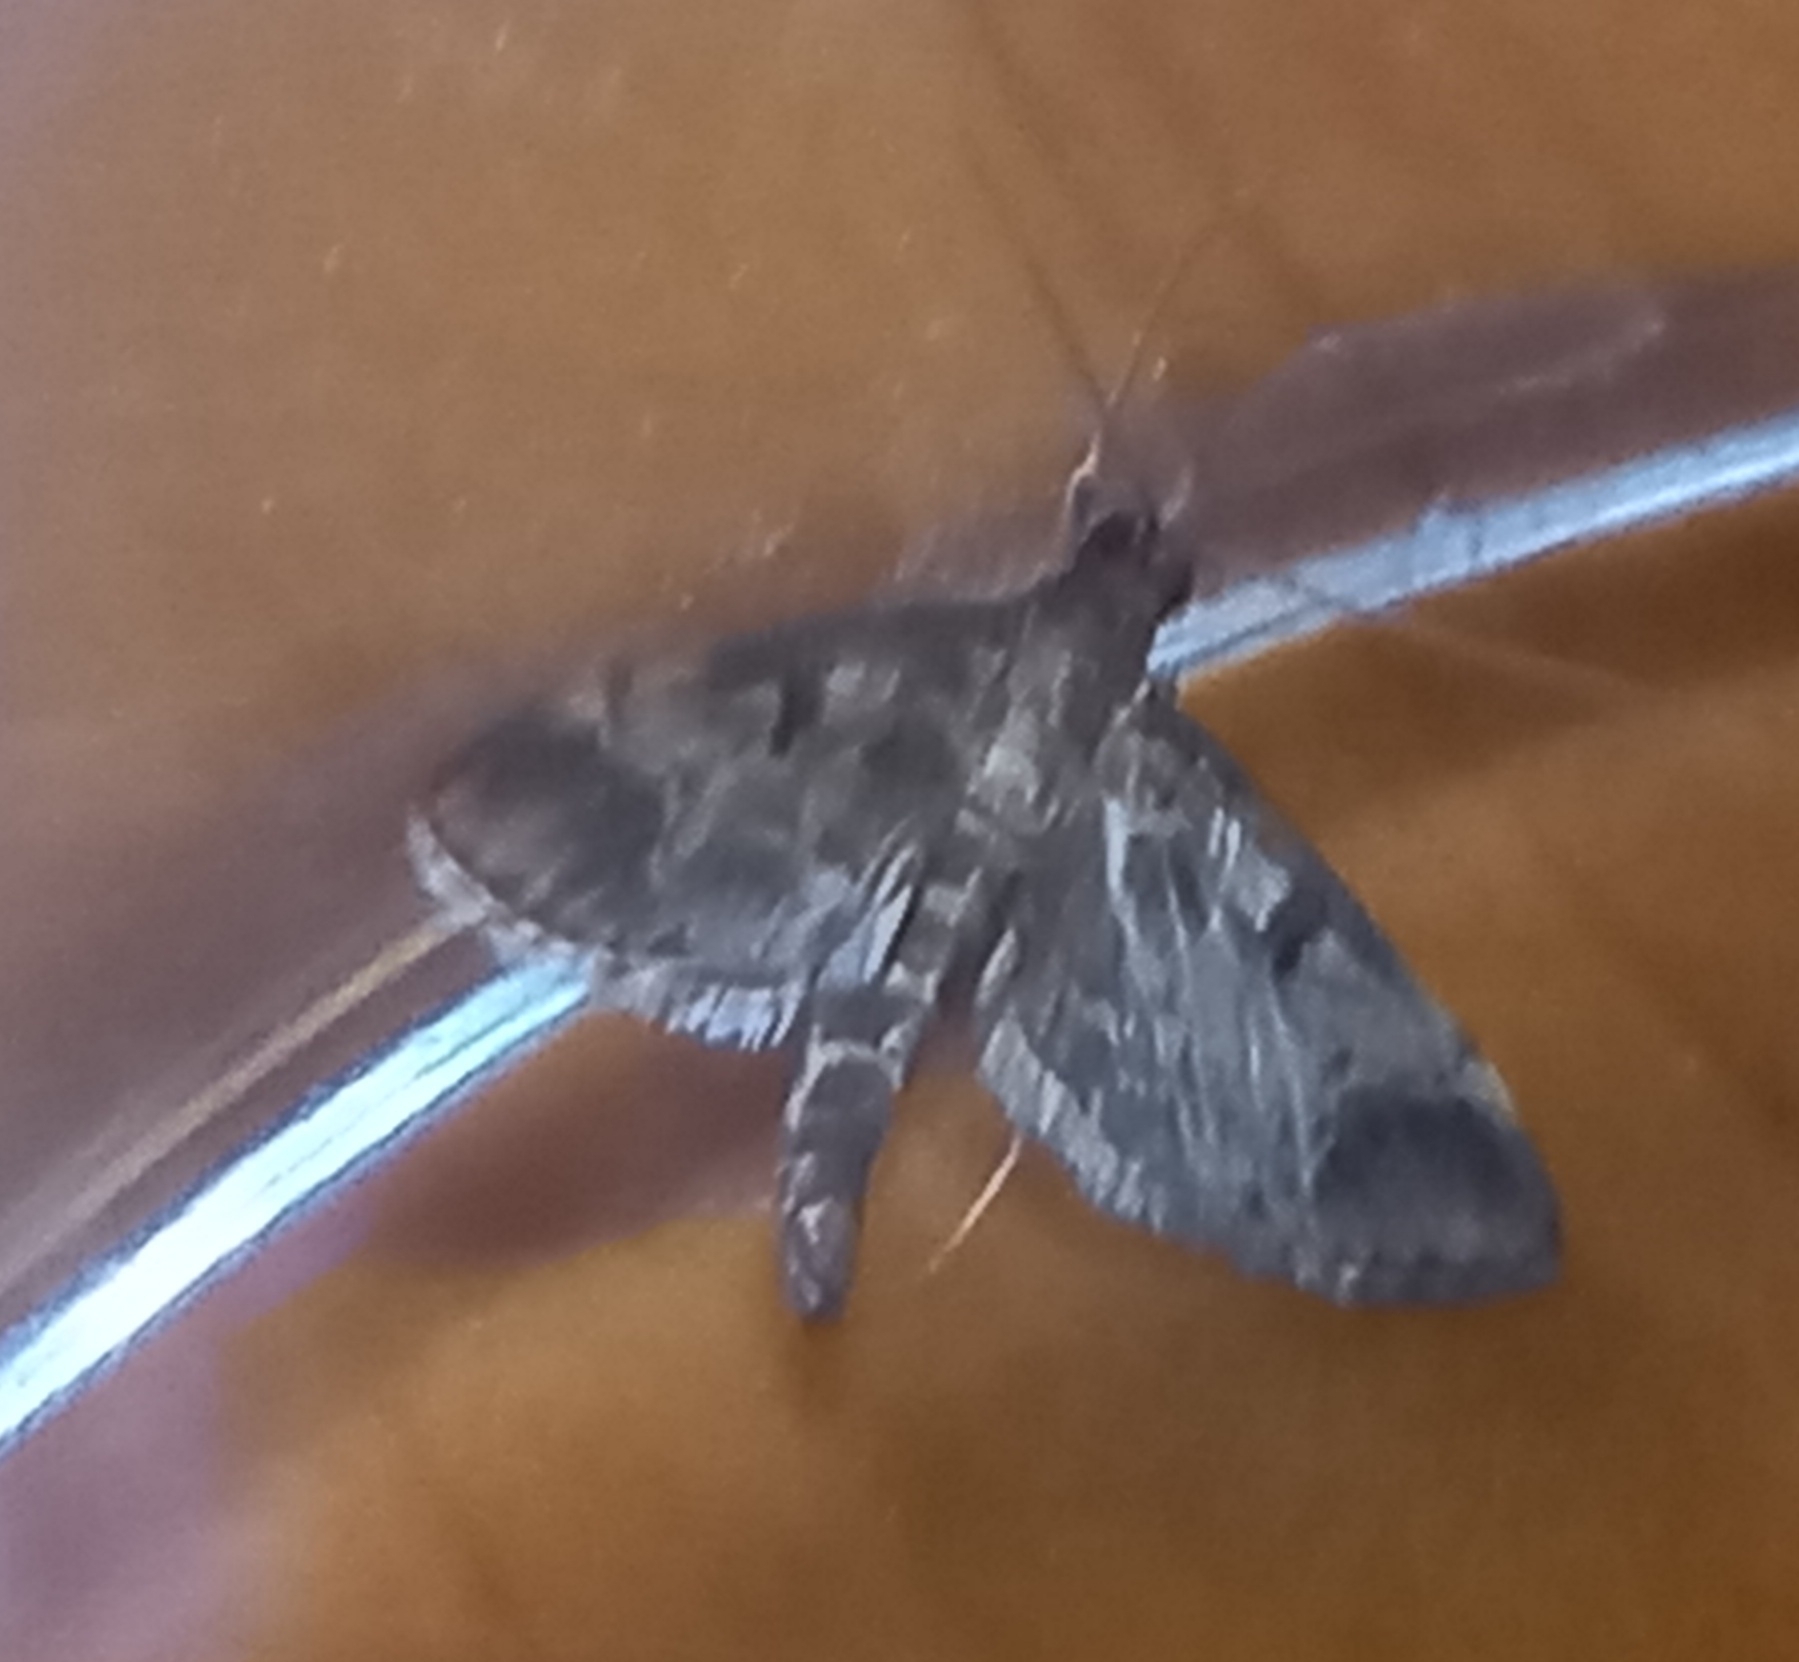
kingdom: Animalia
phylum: Arthropoda
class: Insecta
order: Lepidoptera
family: Crambidae
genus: Duponchelia
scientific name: Duponchelia fovealis
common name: Crambid moth
